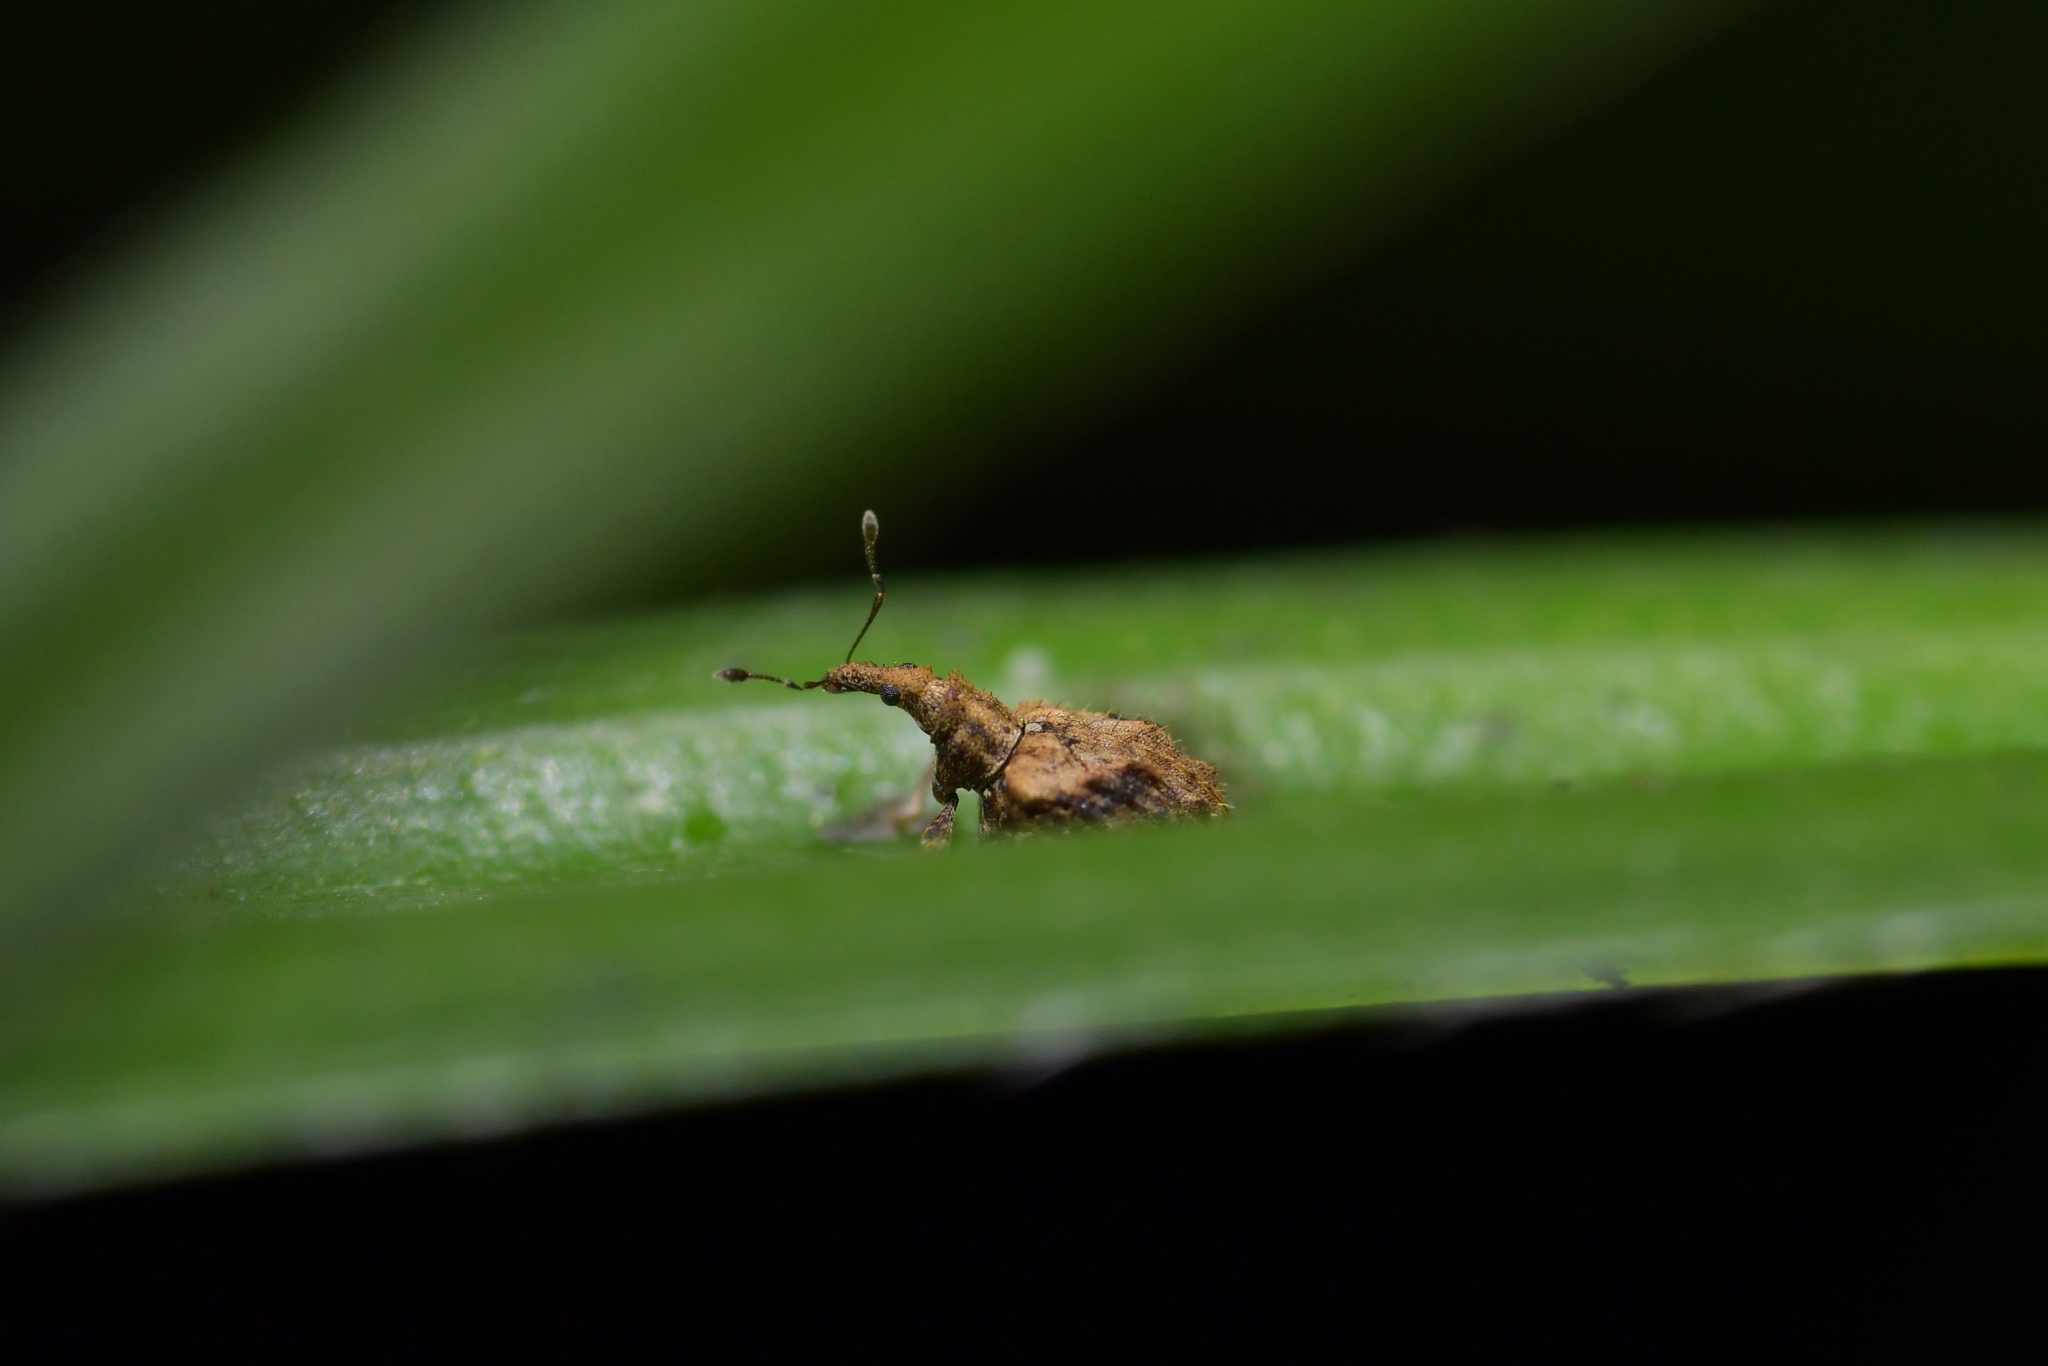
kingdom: Animalia
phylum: Arthropoda
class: Insecta
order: Coleoptera
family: Curculionidae
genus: Tysius
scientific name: Tysius bicornis
